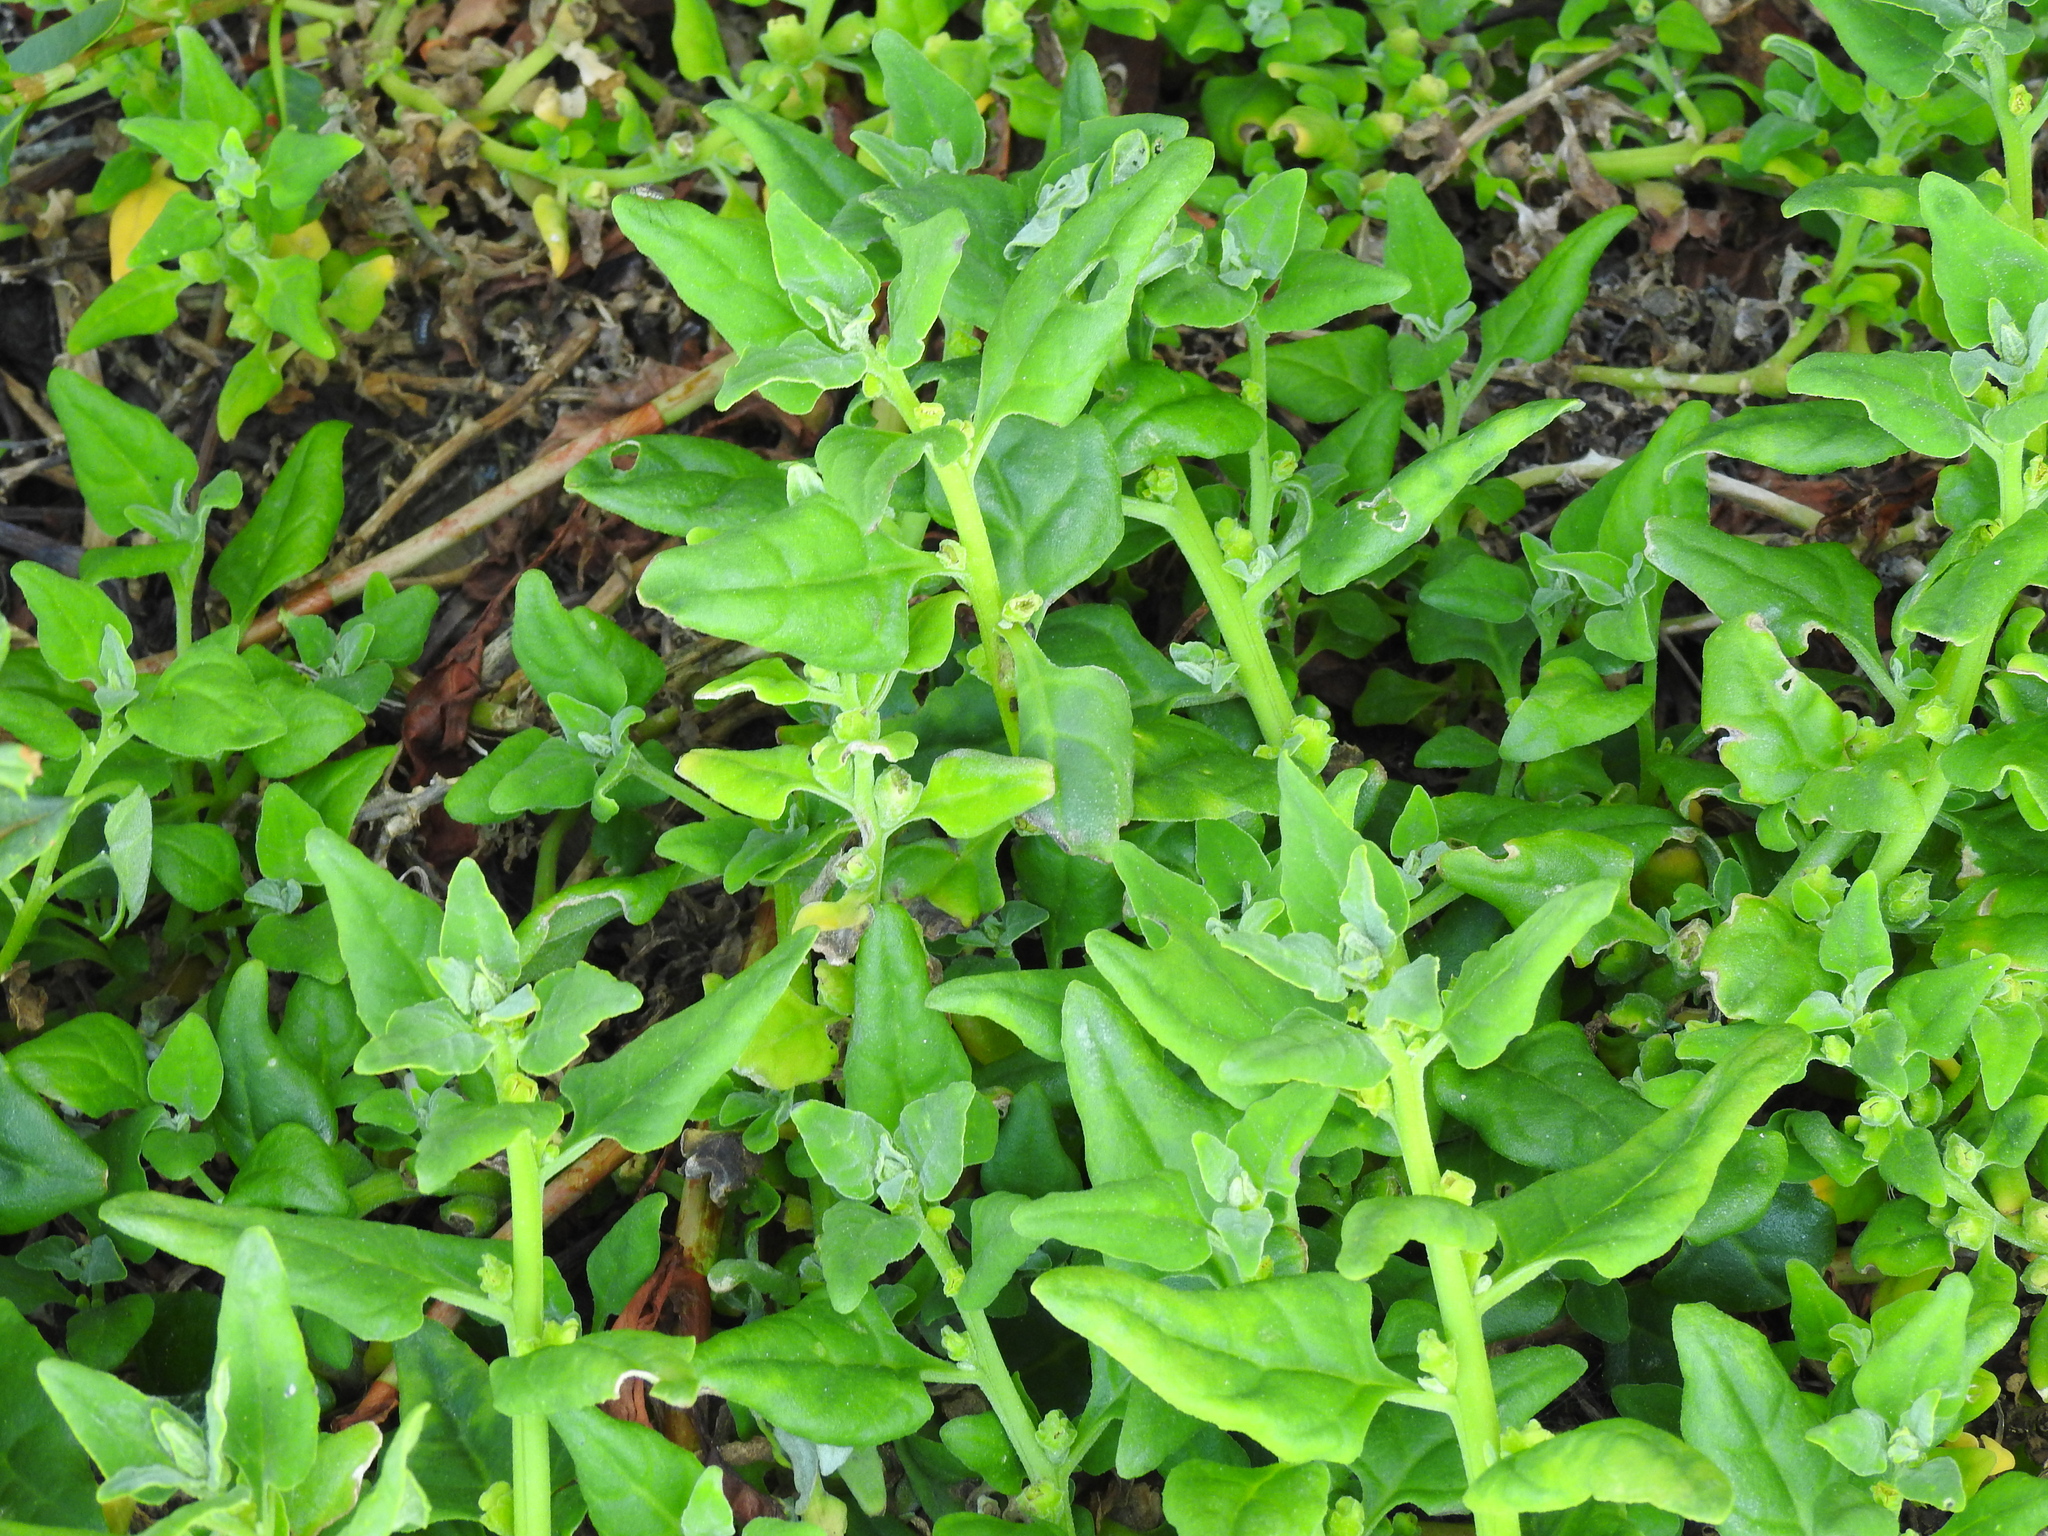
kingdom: Plantae
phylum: Tracheophyta
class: Magnoliopsida
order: Caryophyllales
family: Aizoaceae
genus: Tetragonia
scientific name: Tetragonia tetragonoides
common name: New zealand-spinach
